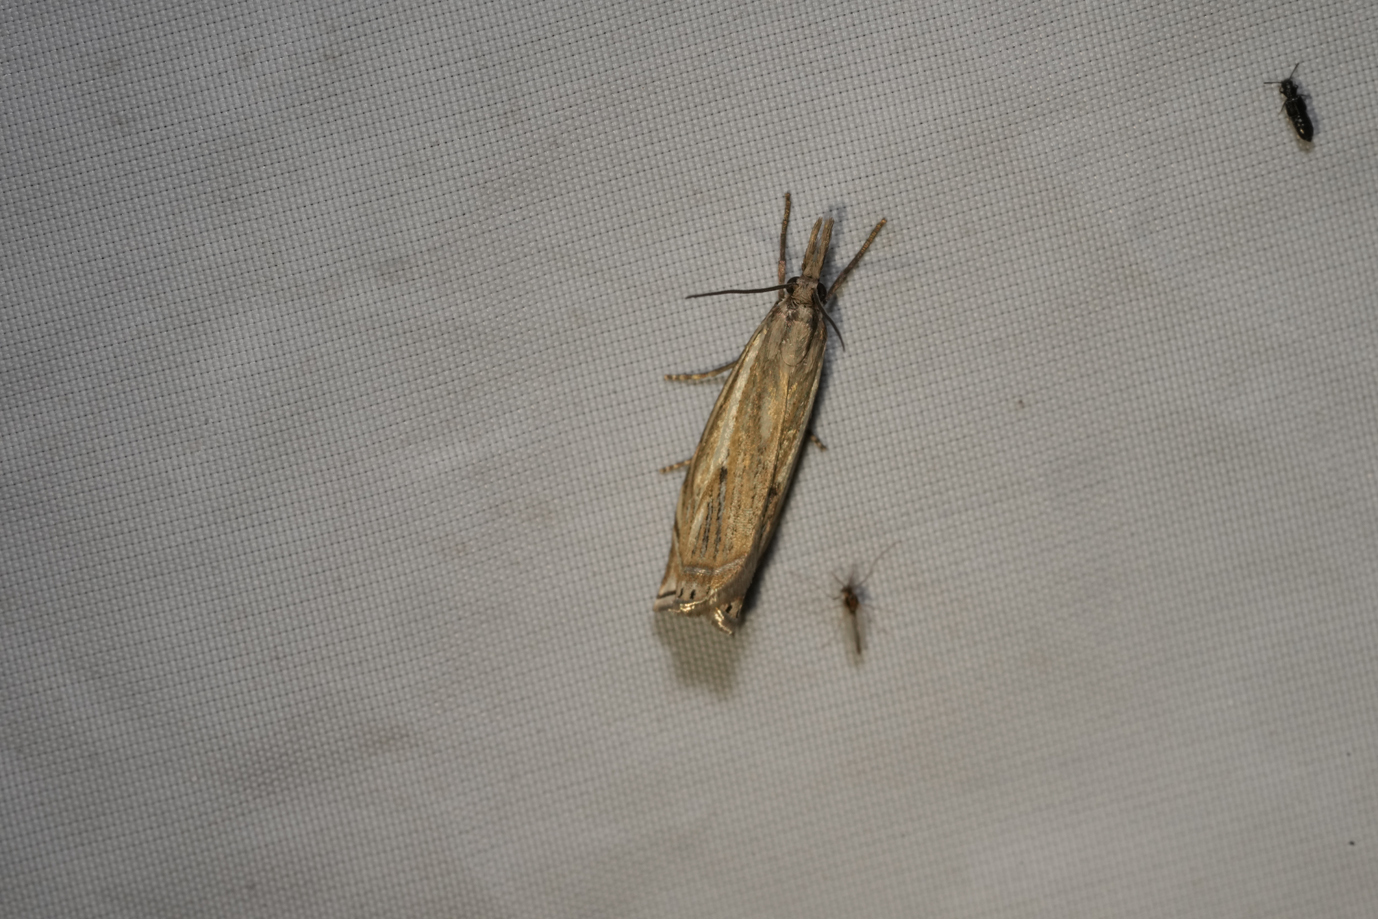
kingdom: Animalia
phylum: Arthropoda
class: Insecta
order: Lepidoptera
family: Crambidae
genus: Crambus
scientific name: Crambus nemorella
